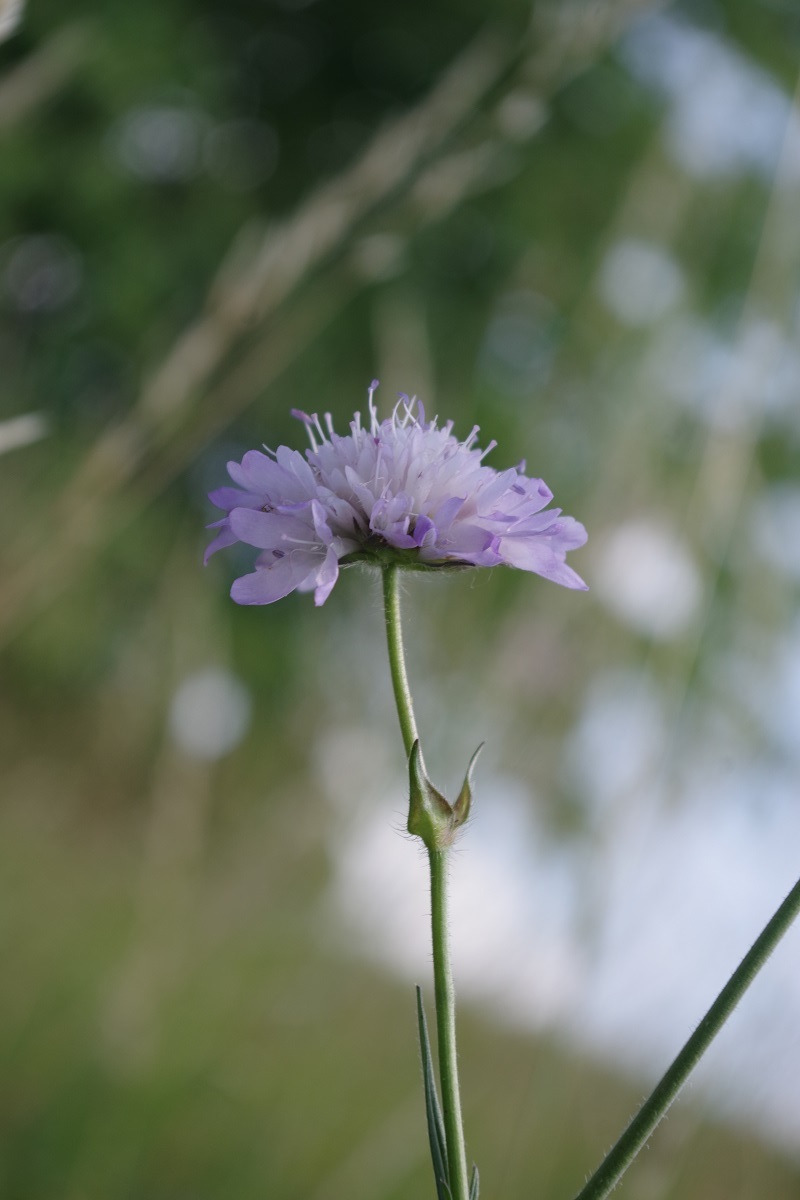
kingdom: Plantae
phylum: Tracheophyta
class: Magnoliopsida
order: Dipsacales
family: Caprifoliaceae
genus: Knautia
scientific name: Knautia arvensis
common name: Field scabiosa
